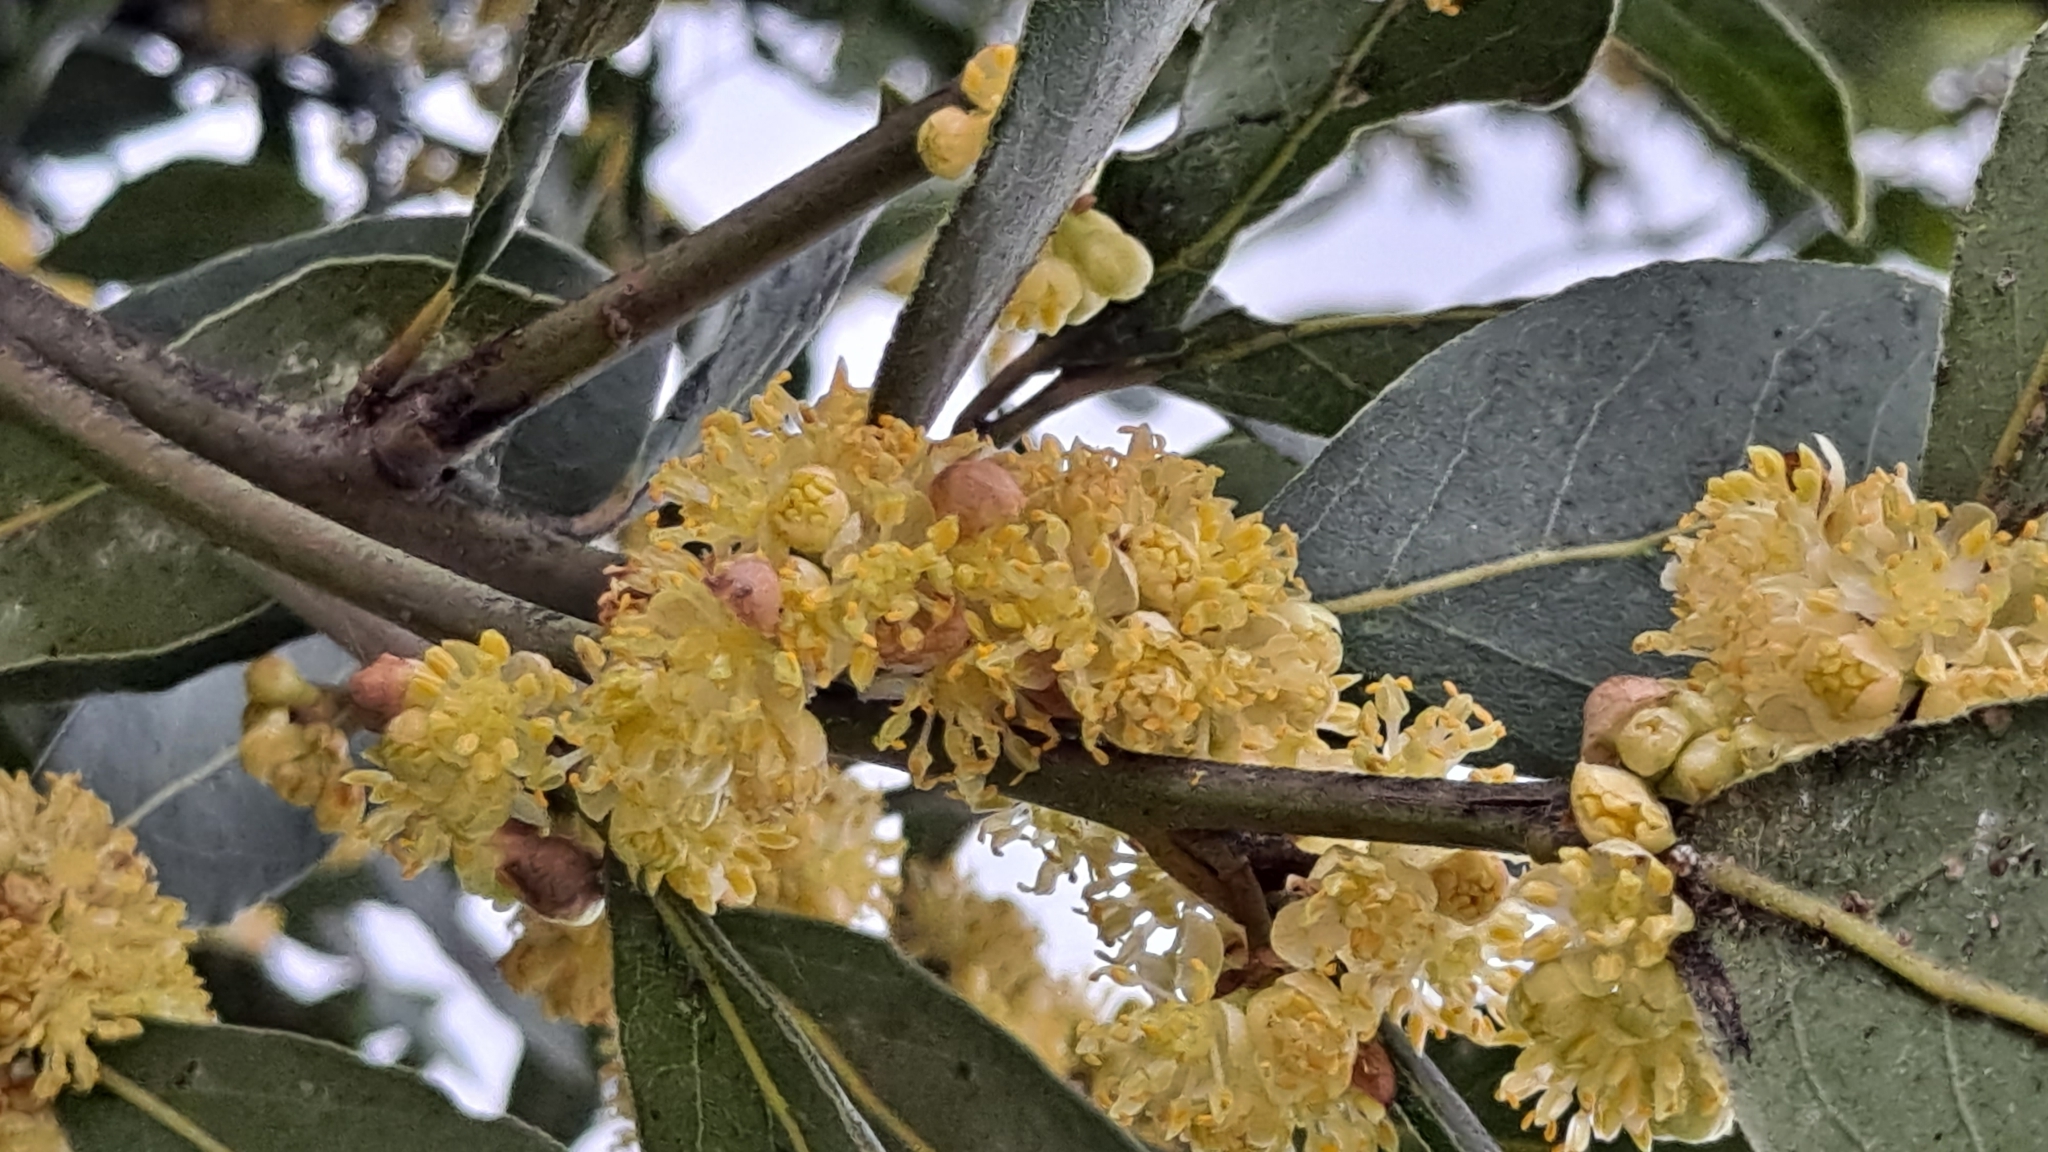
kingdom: Plantae
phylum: Tracheophyta
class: Magnoliopsida
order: Laurales
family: Lauraceae
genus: Laurus
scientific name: Laurus nobilis
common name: Bay
